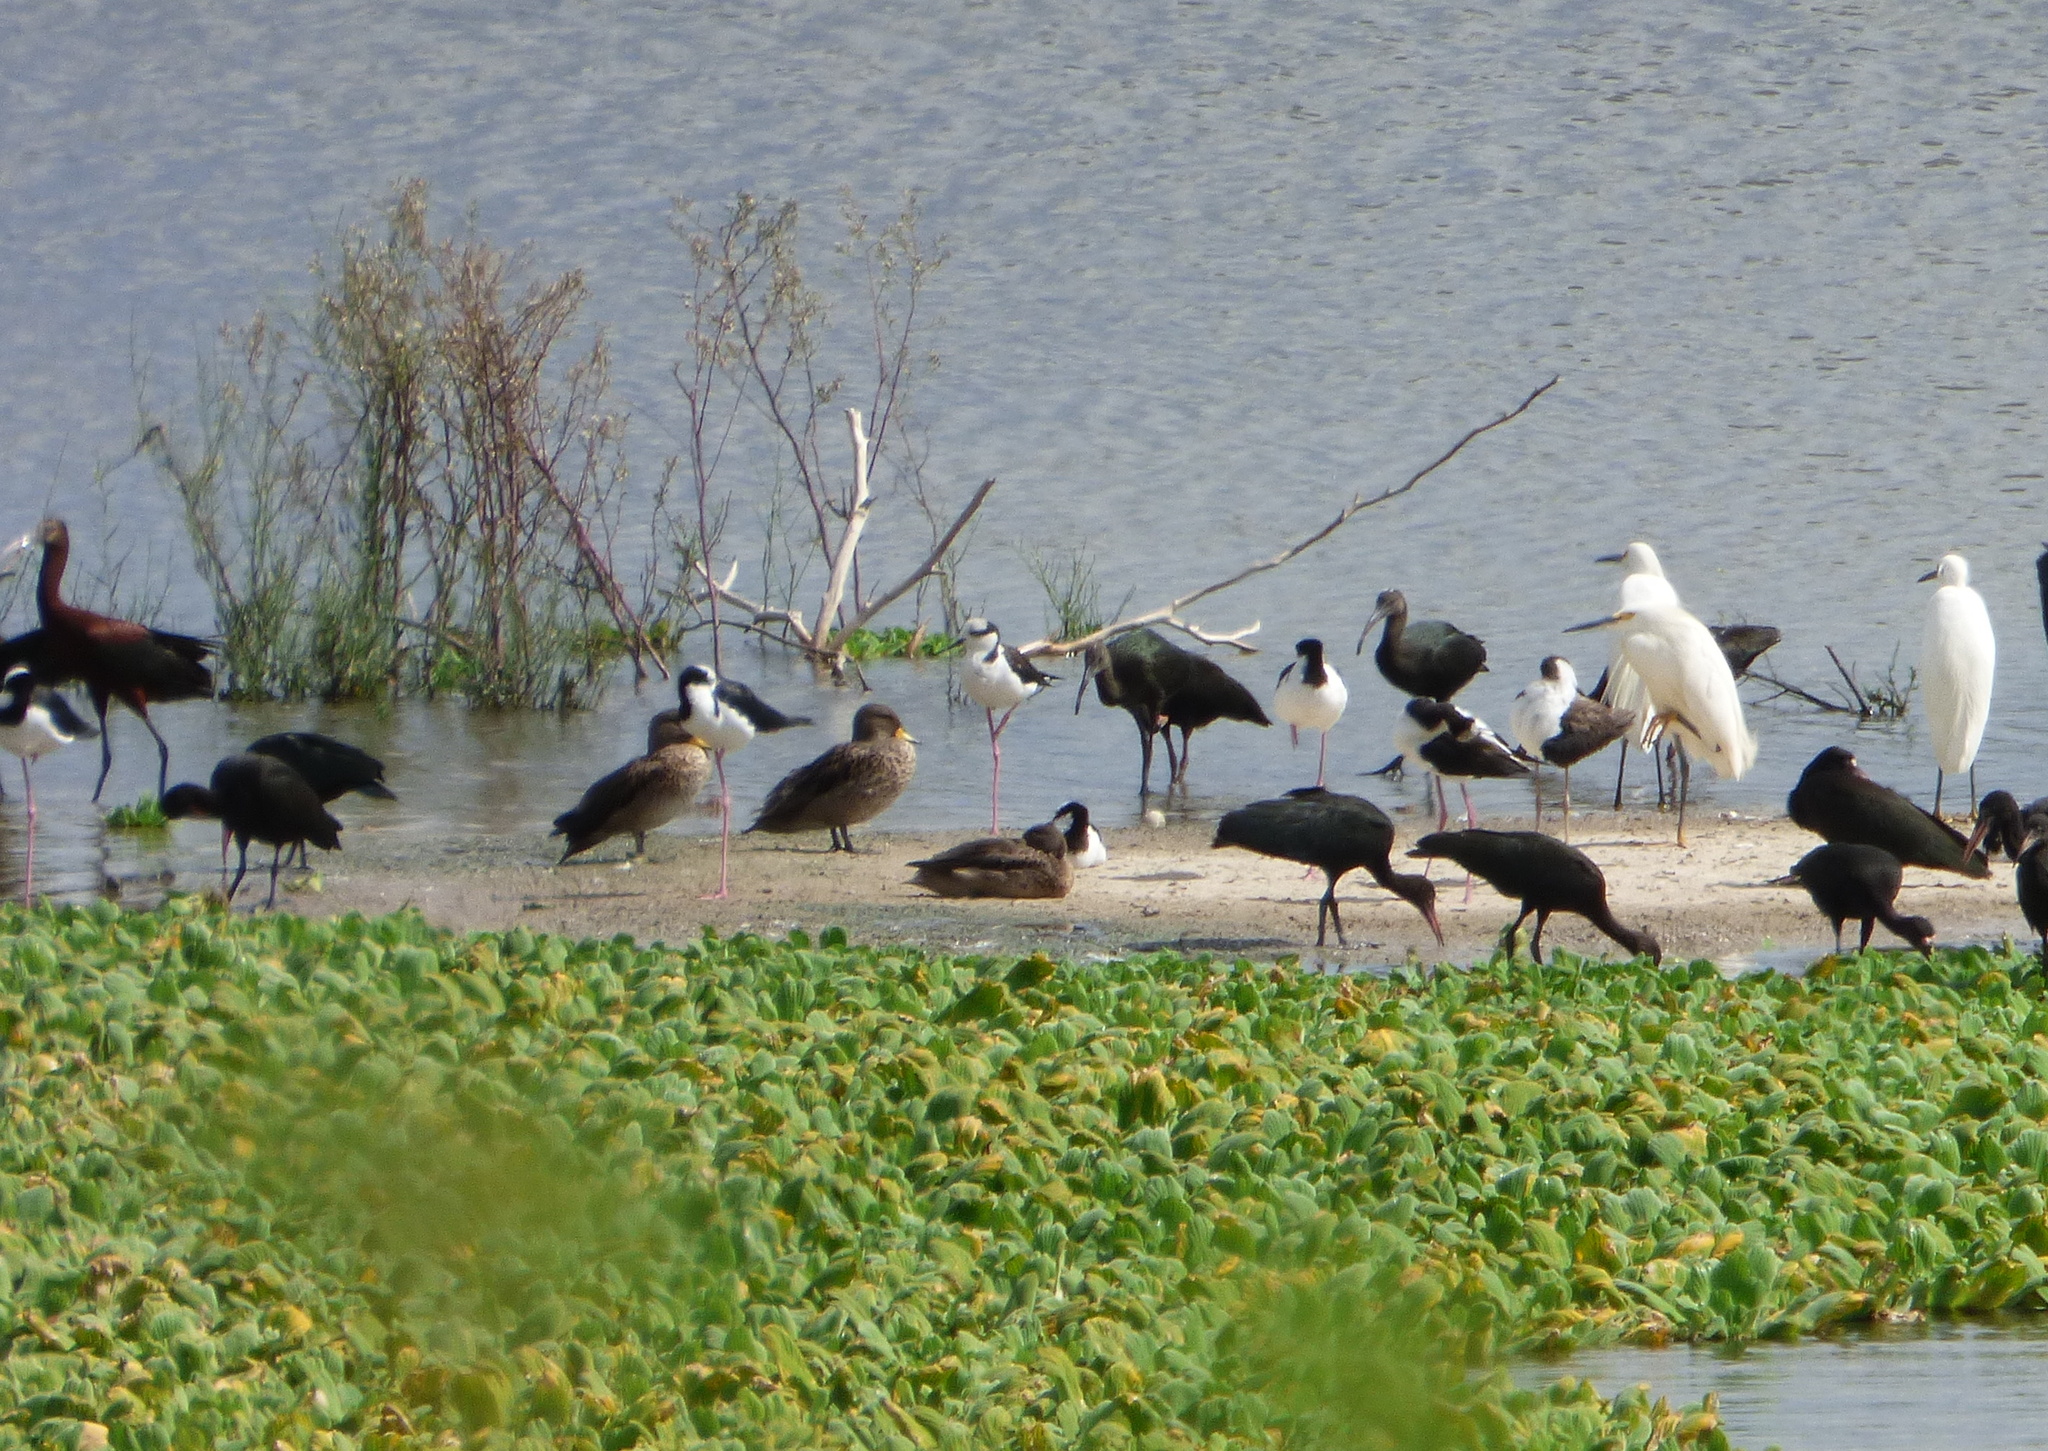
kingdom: Animalia
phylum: Chordata
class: Aves
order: Anseriformes
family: Anatidae
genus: Anas
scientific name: Anas flavirostris
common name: Yellow-billed teal
